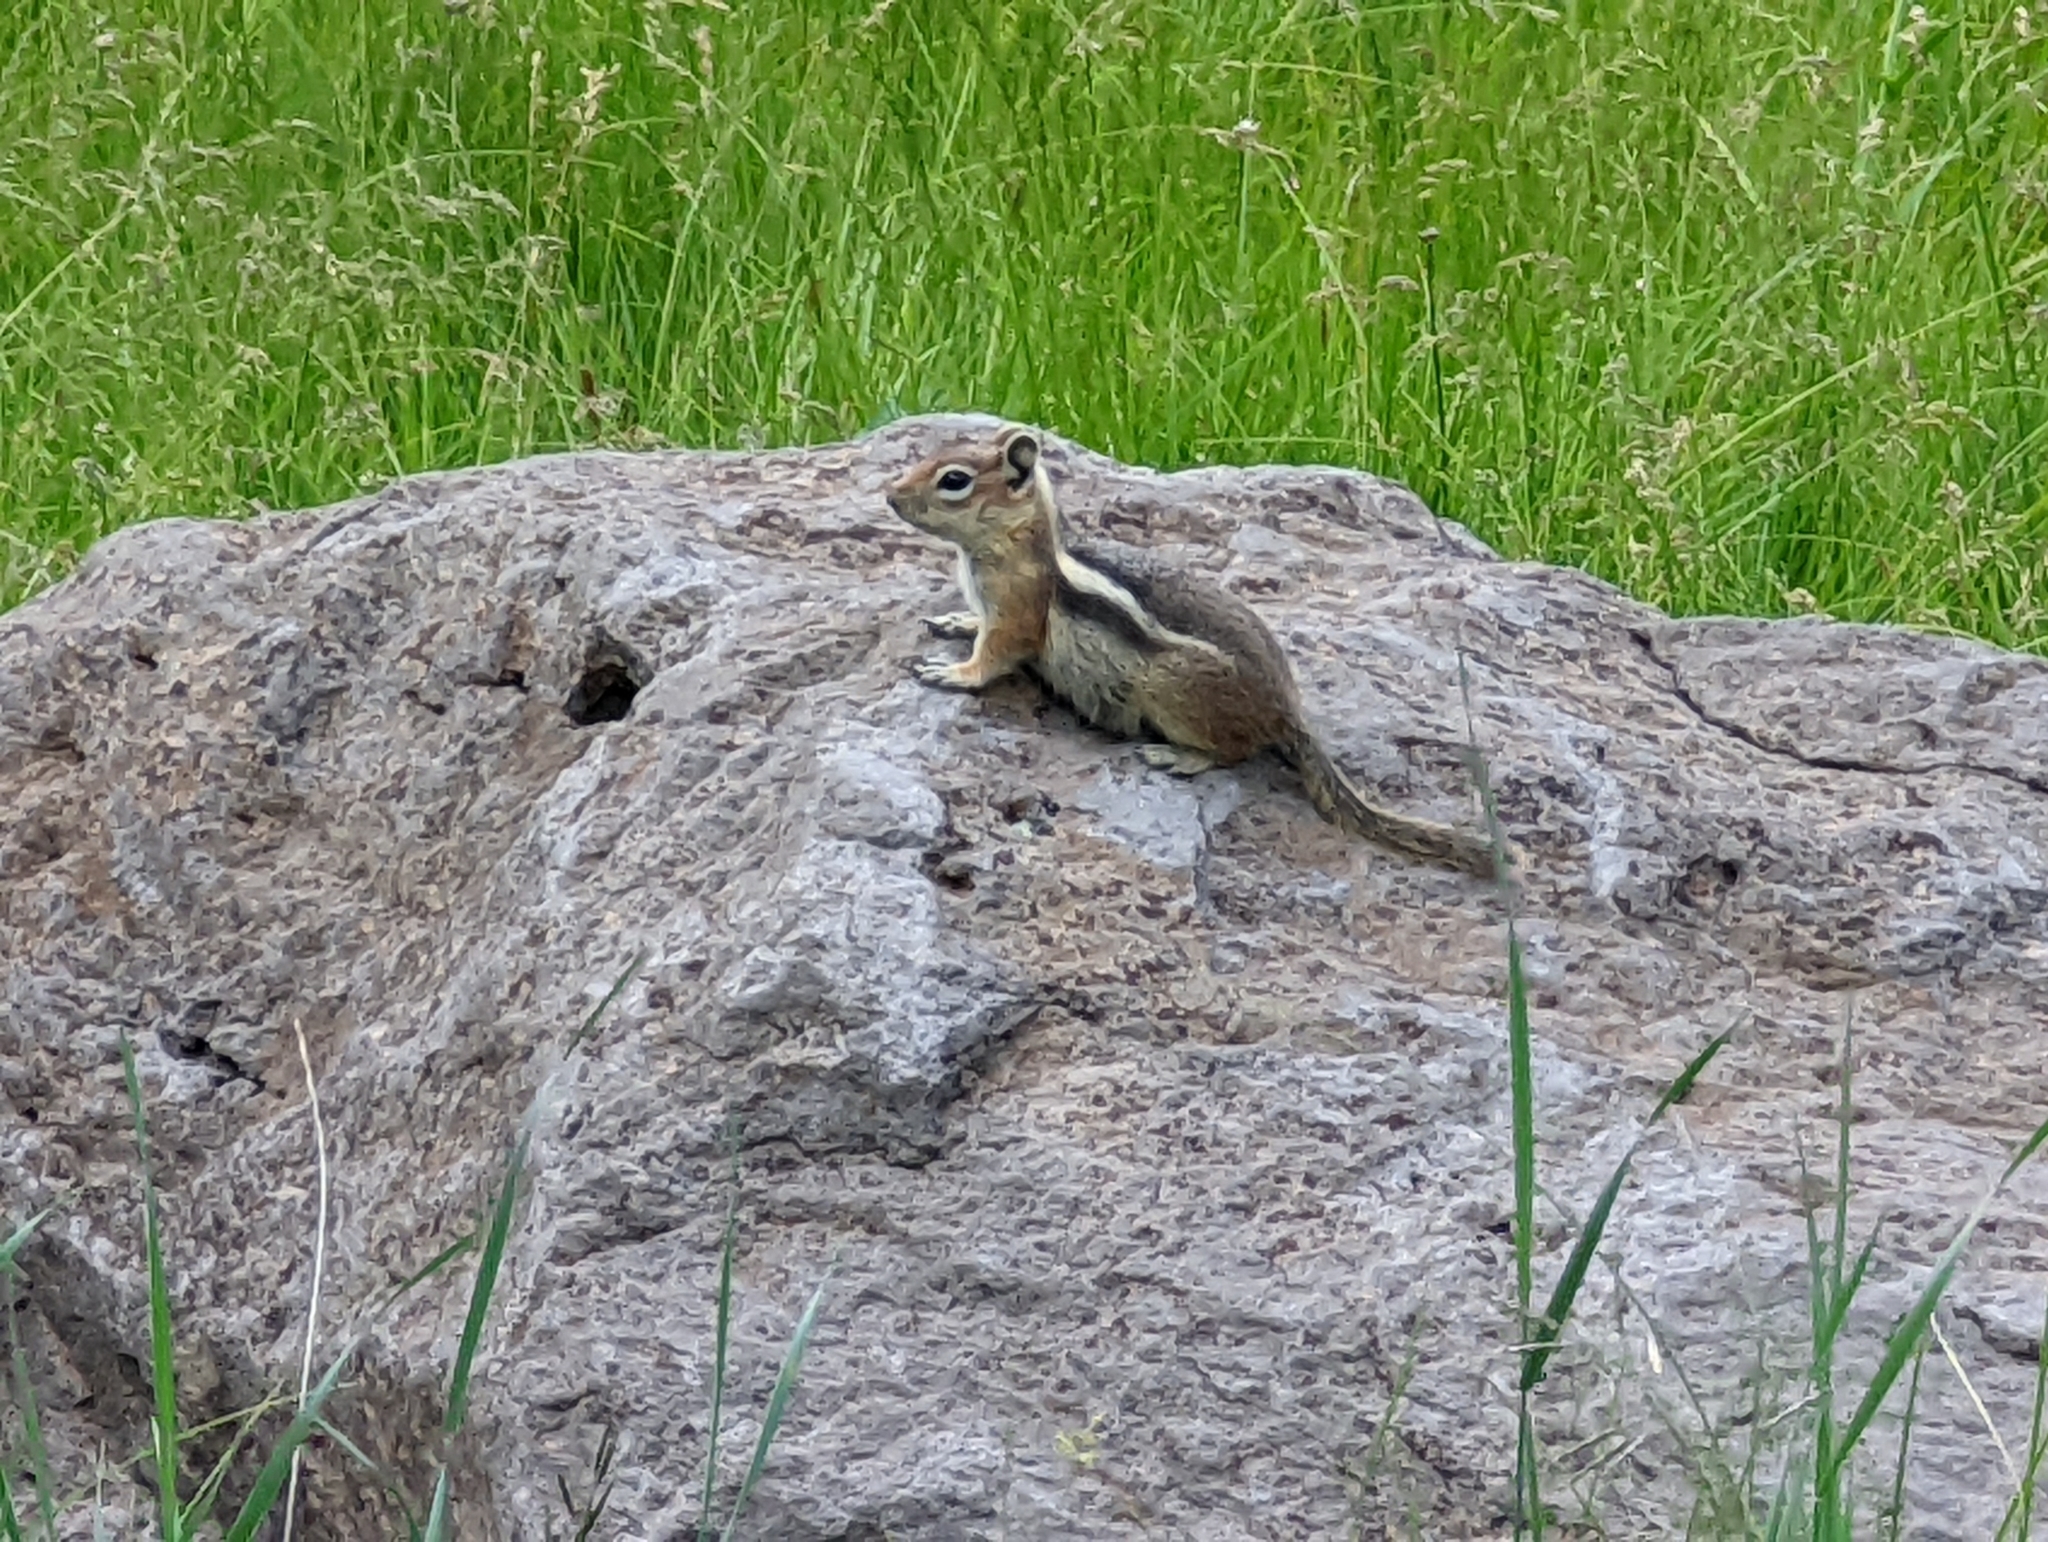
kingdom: Animalia
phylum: Chordata
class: Mammalia
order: Rodentia
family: Sciuridae
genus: Callospermophilus
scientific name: Callospermophilus lateralis
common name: Golden-mantled ground squirrel
